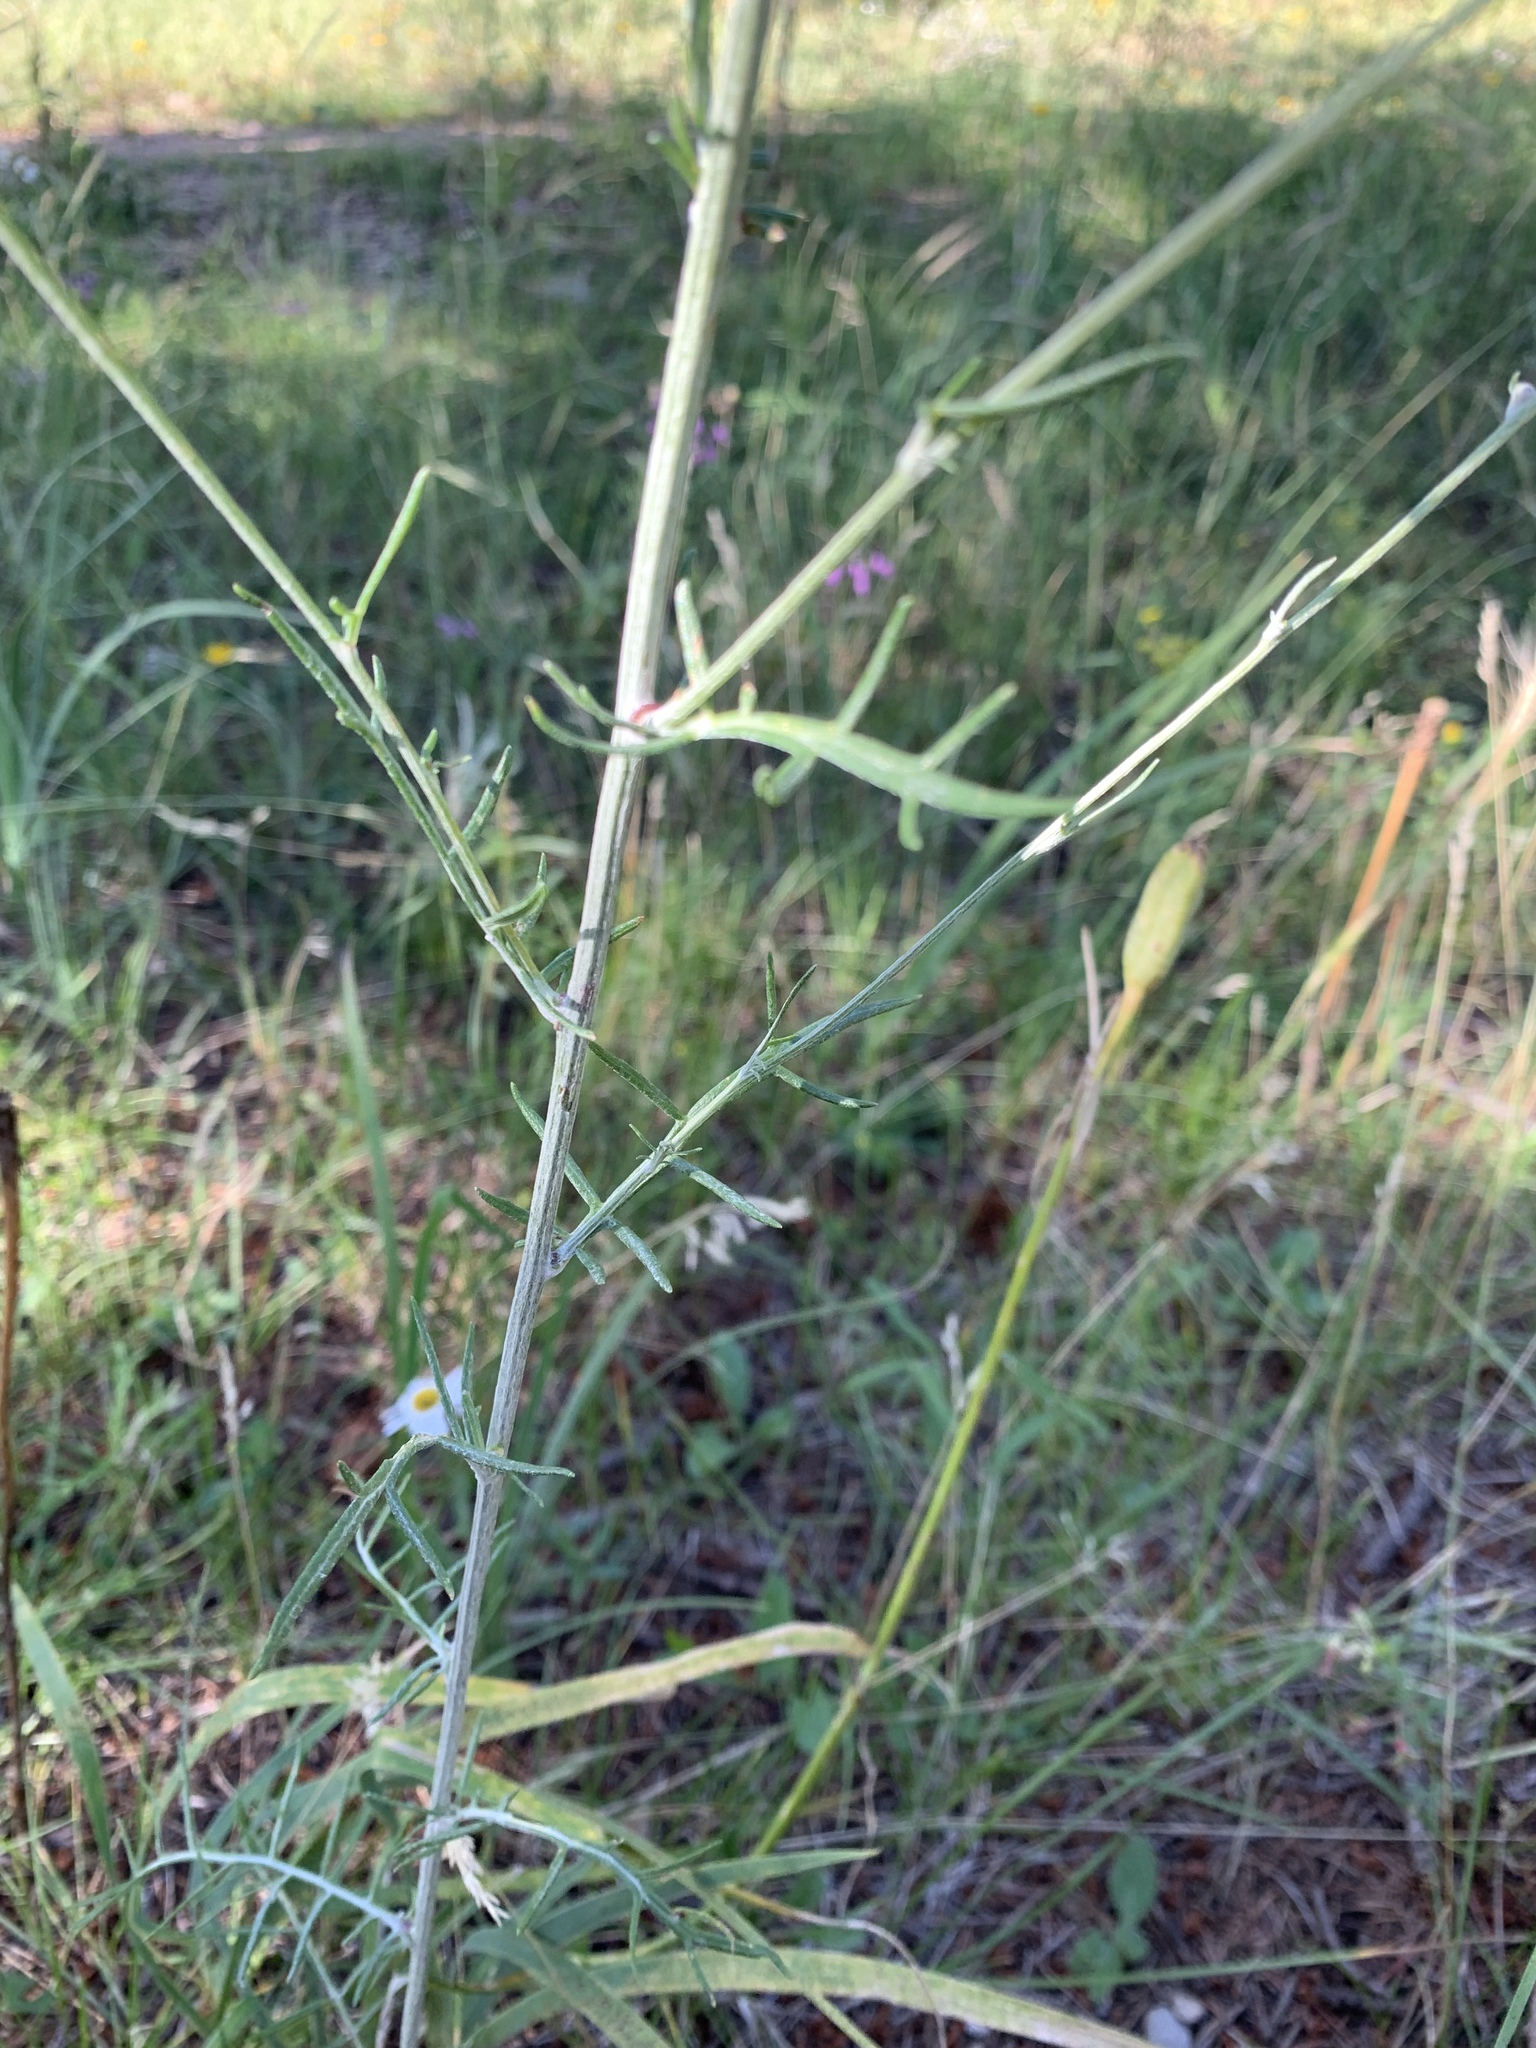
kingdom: Plantae
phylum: Tracheophyta
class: Magnoliopsida
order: Asterales
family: Asteraceae
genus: Bidens
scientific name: Bidens alba
